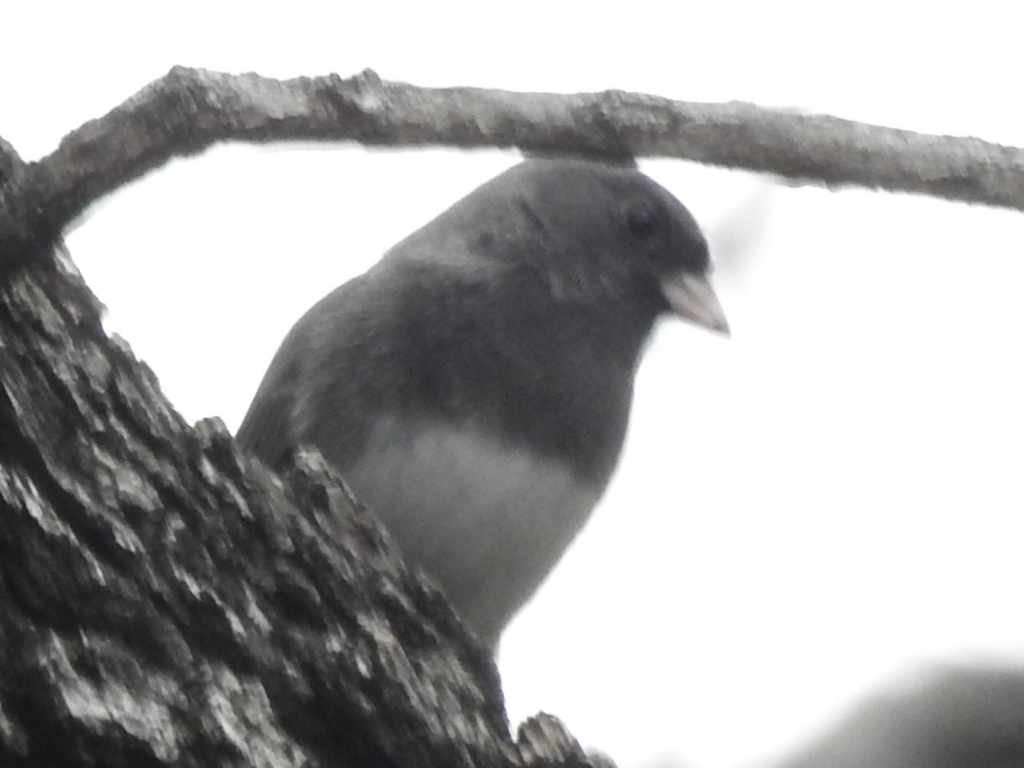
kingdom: Animalia
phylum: Chordata
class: Aves
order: Passeriformes
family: Passerellidae
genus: Junco
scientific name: Junco hyemalis
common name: Dark-eyed junco
